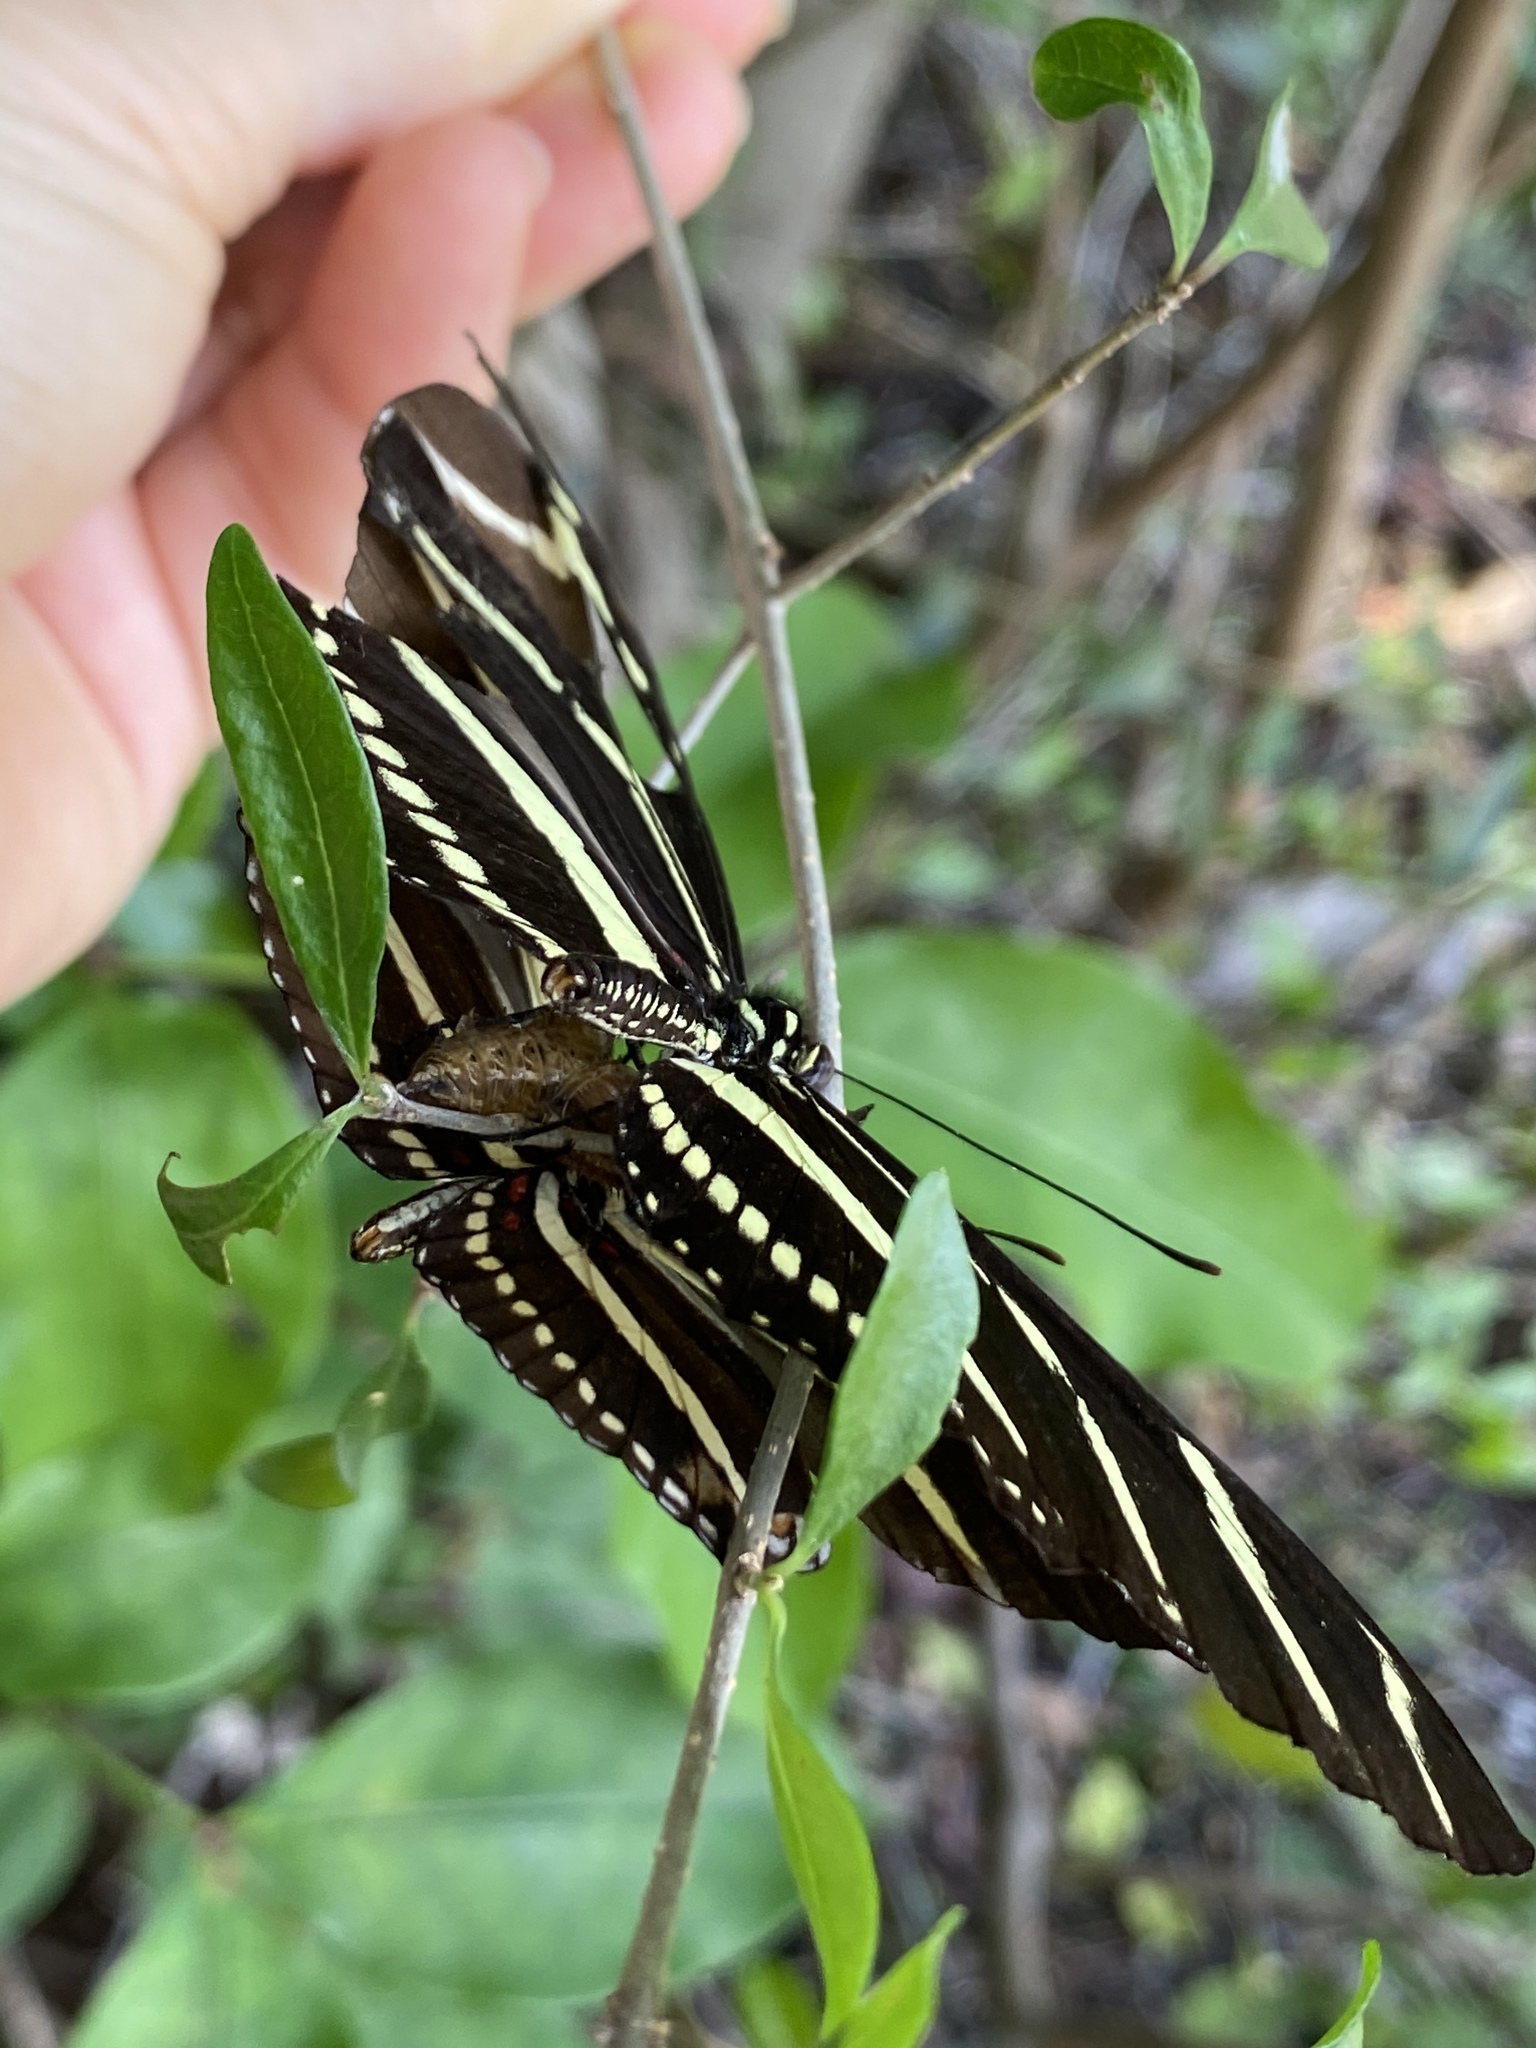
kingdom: Animalia
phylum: Arthropoda
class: Insecta
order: Lepidoptera
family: Nymphalidae
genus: Heliconius
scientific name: Heliconius charithonia
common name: Zebra long wing
